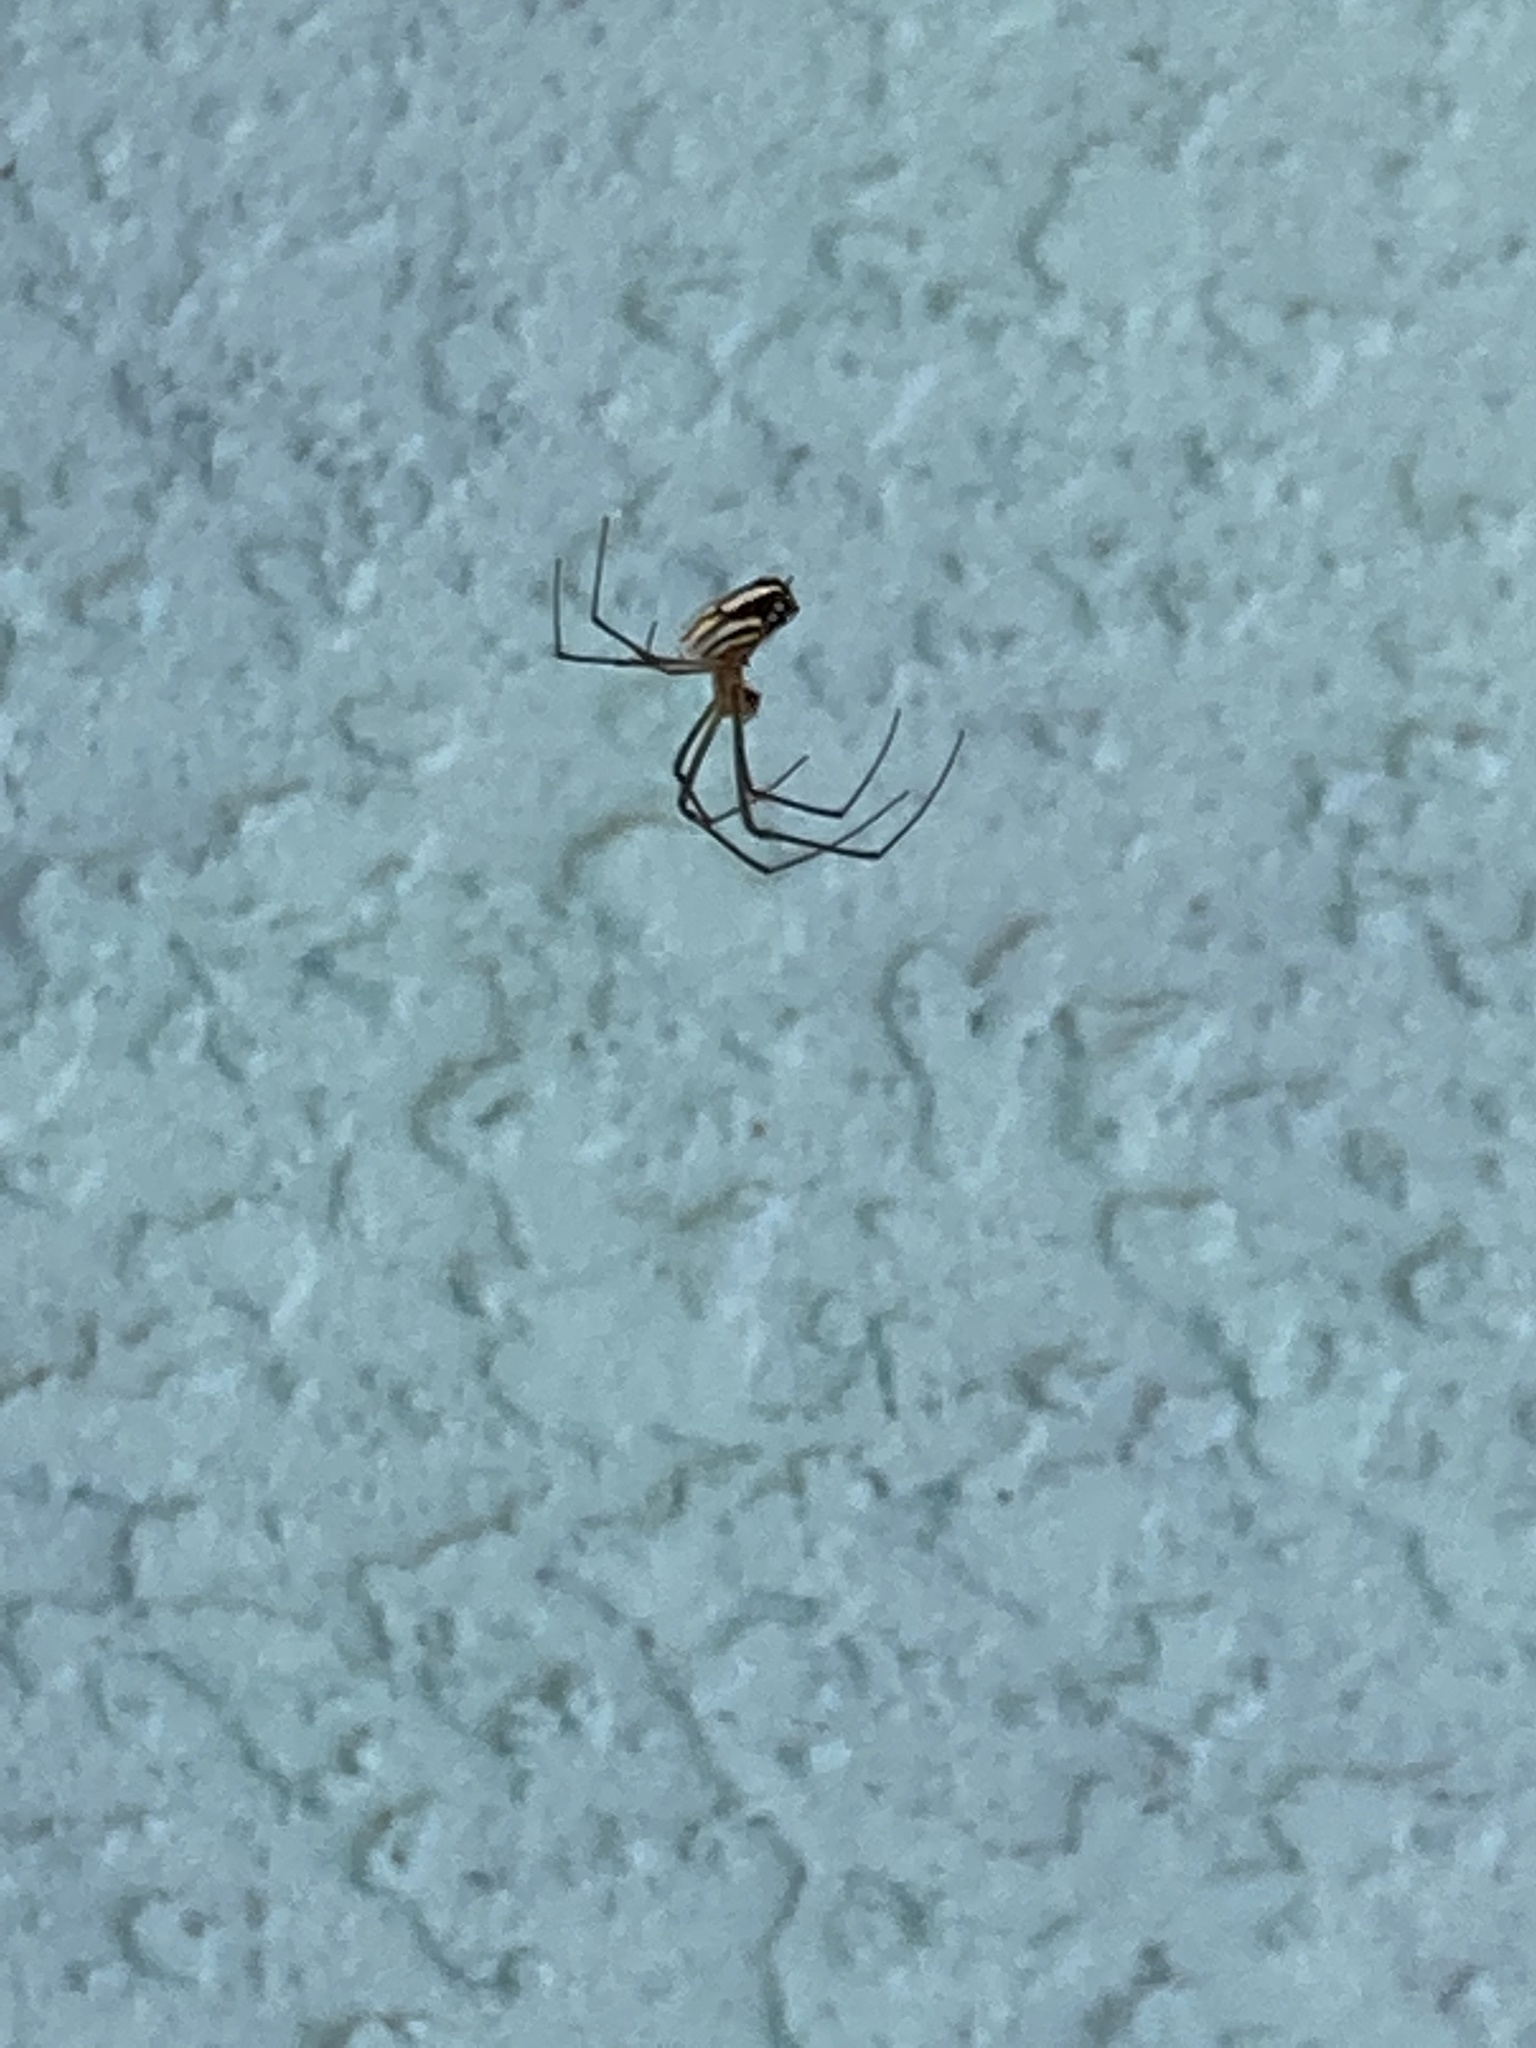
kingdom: Animalia
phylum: Arthropoda
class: Arachnida
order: Araneae
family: Tetragnathidae
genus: Leucauge
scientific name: Leucauge argyra
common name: Longjawed orb weavers
